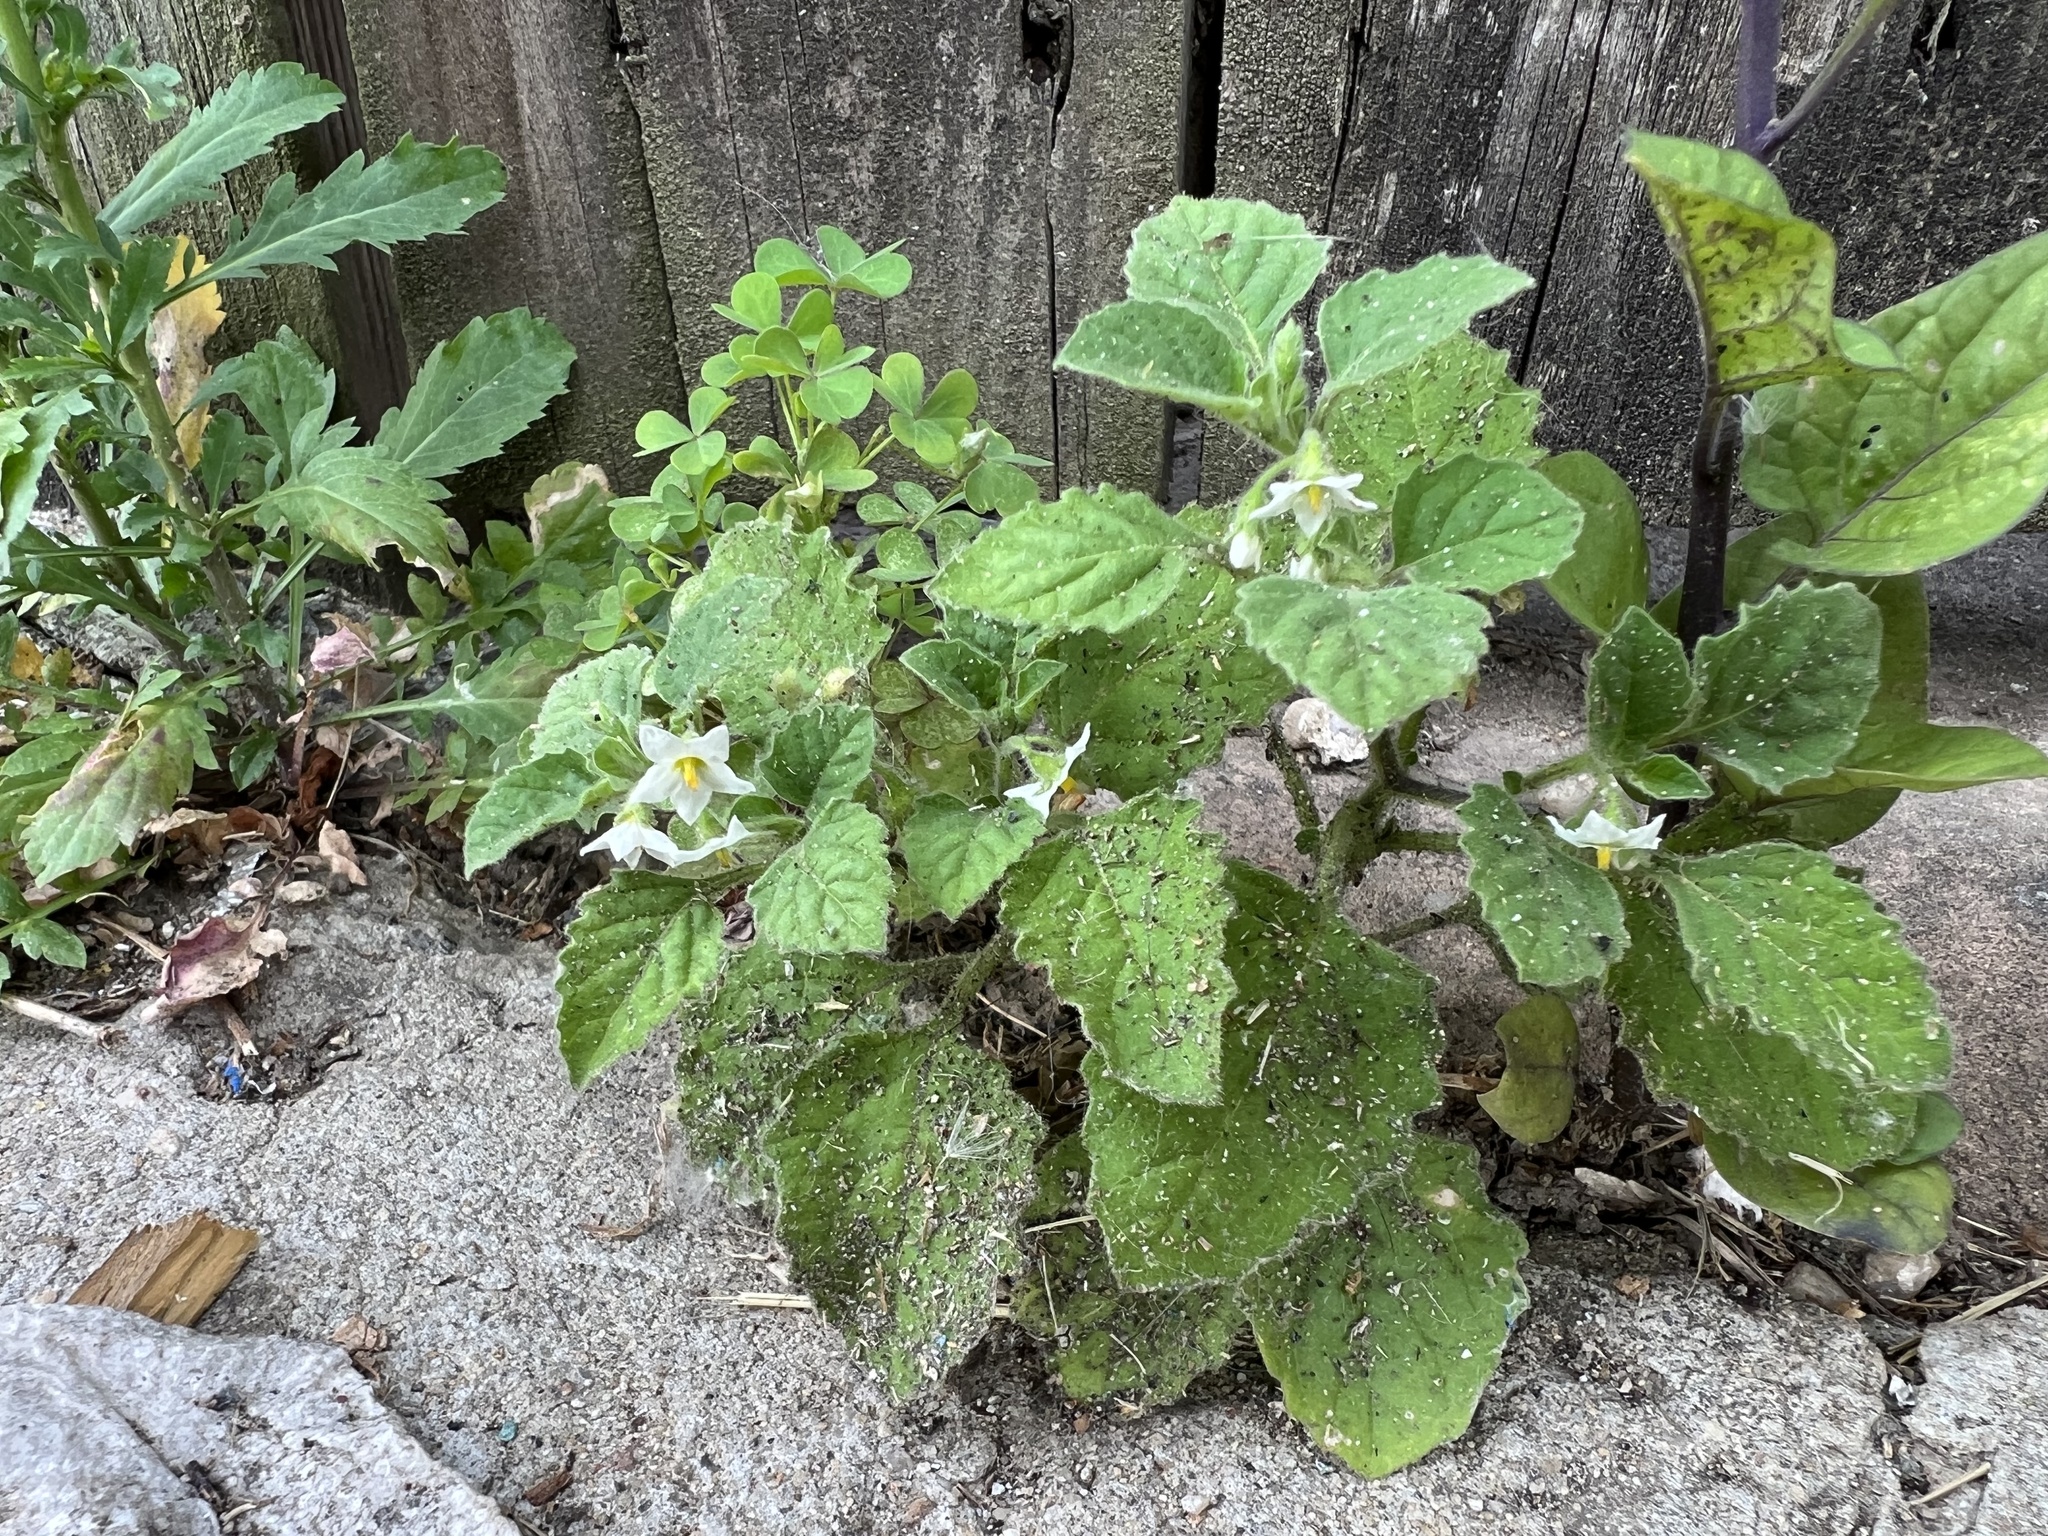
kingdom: Plantae
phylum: Tracheophyta
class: Magnoliopsida
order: Solanales
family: Solanaceae
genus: Solanum
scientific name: Solanum sarrachoides
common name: Leafy-fruited nightshade
